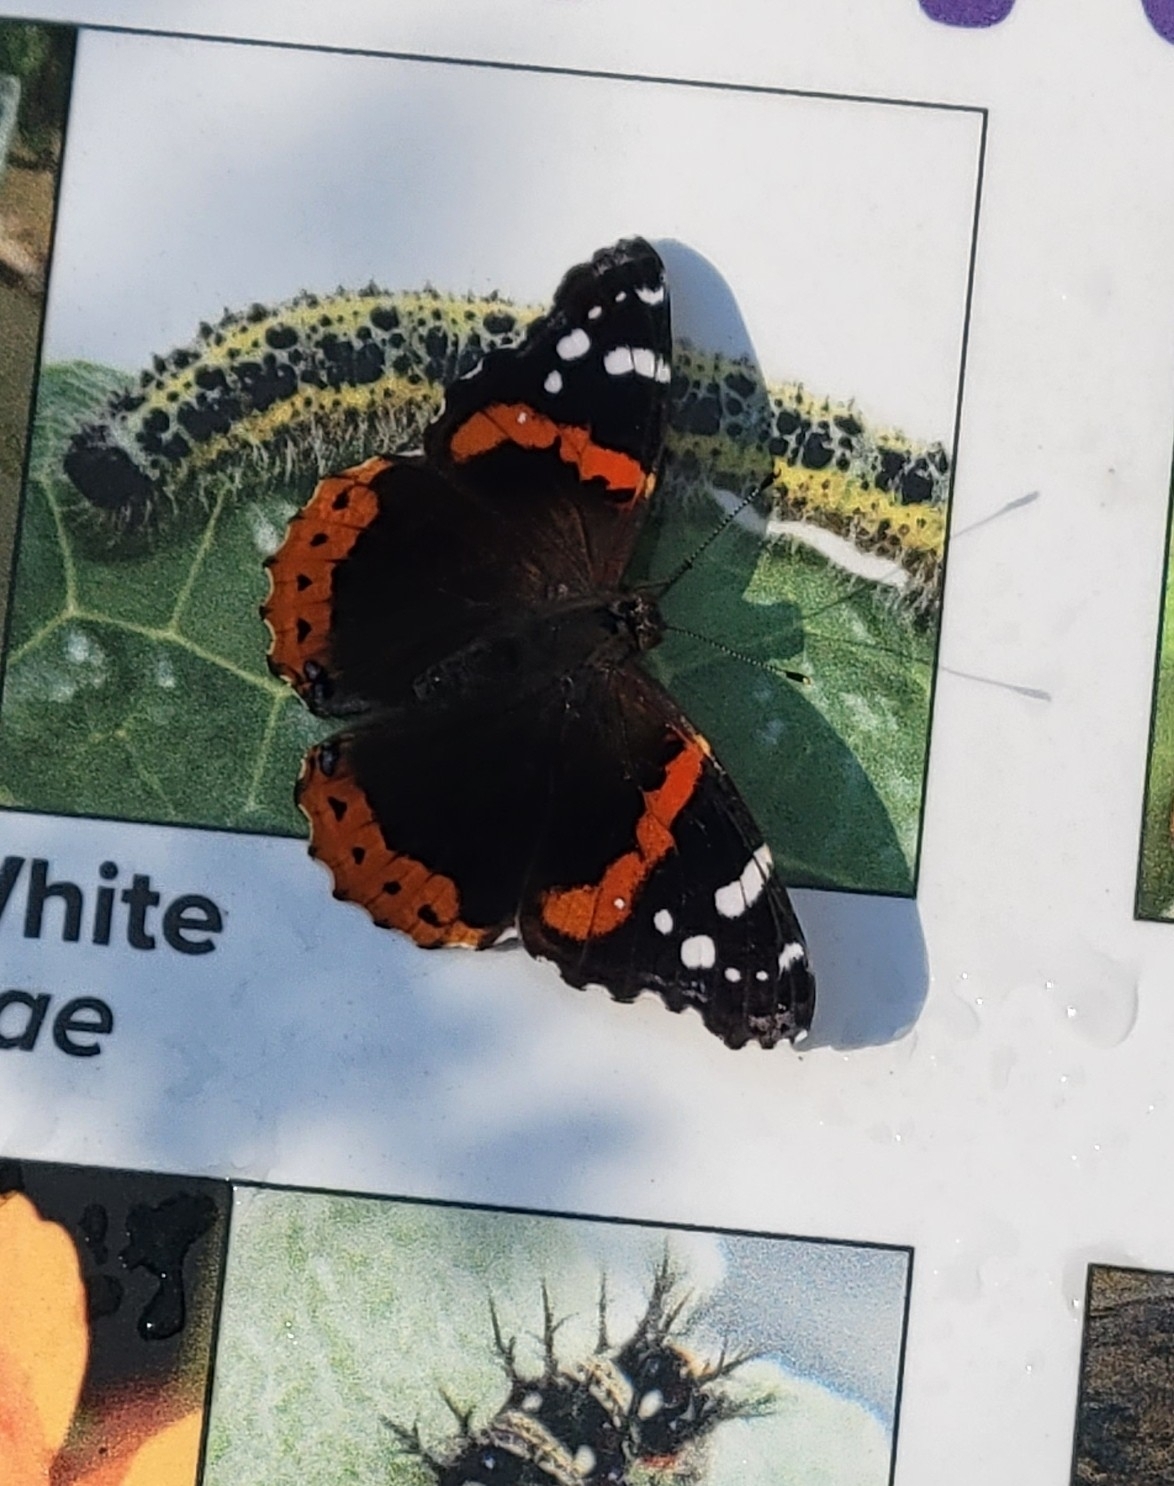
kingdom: Animalia
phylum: Arthropoda
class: Insecta
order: Lepidoptera
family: Nymphalidae
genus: Vanessa
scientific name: Vanessa atalanta
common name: Red admiral
